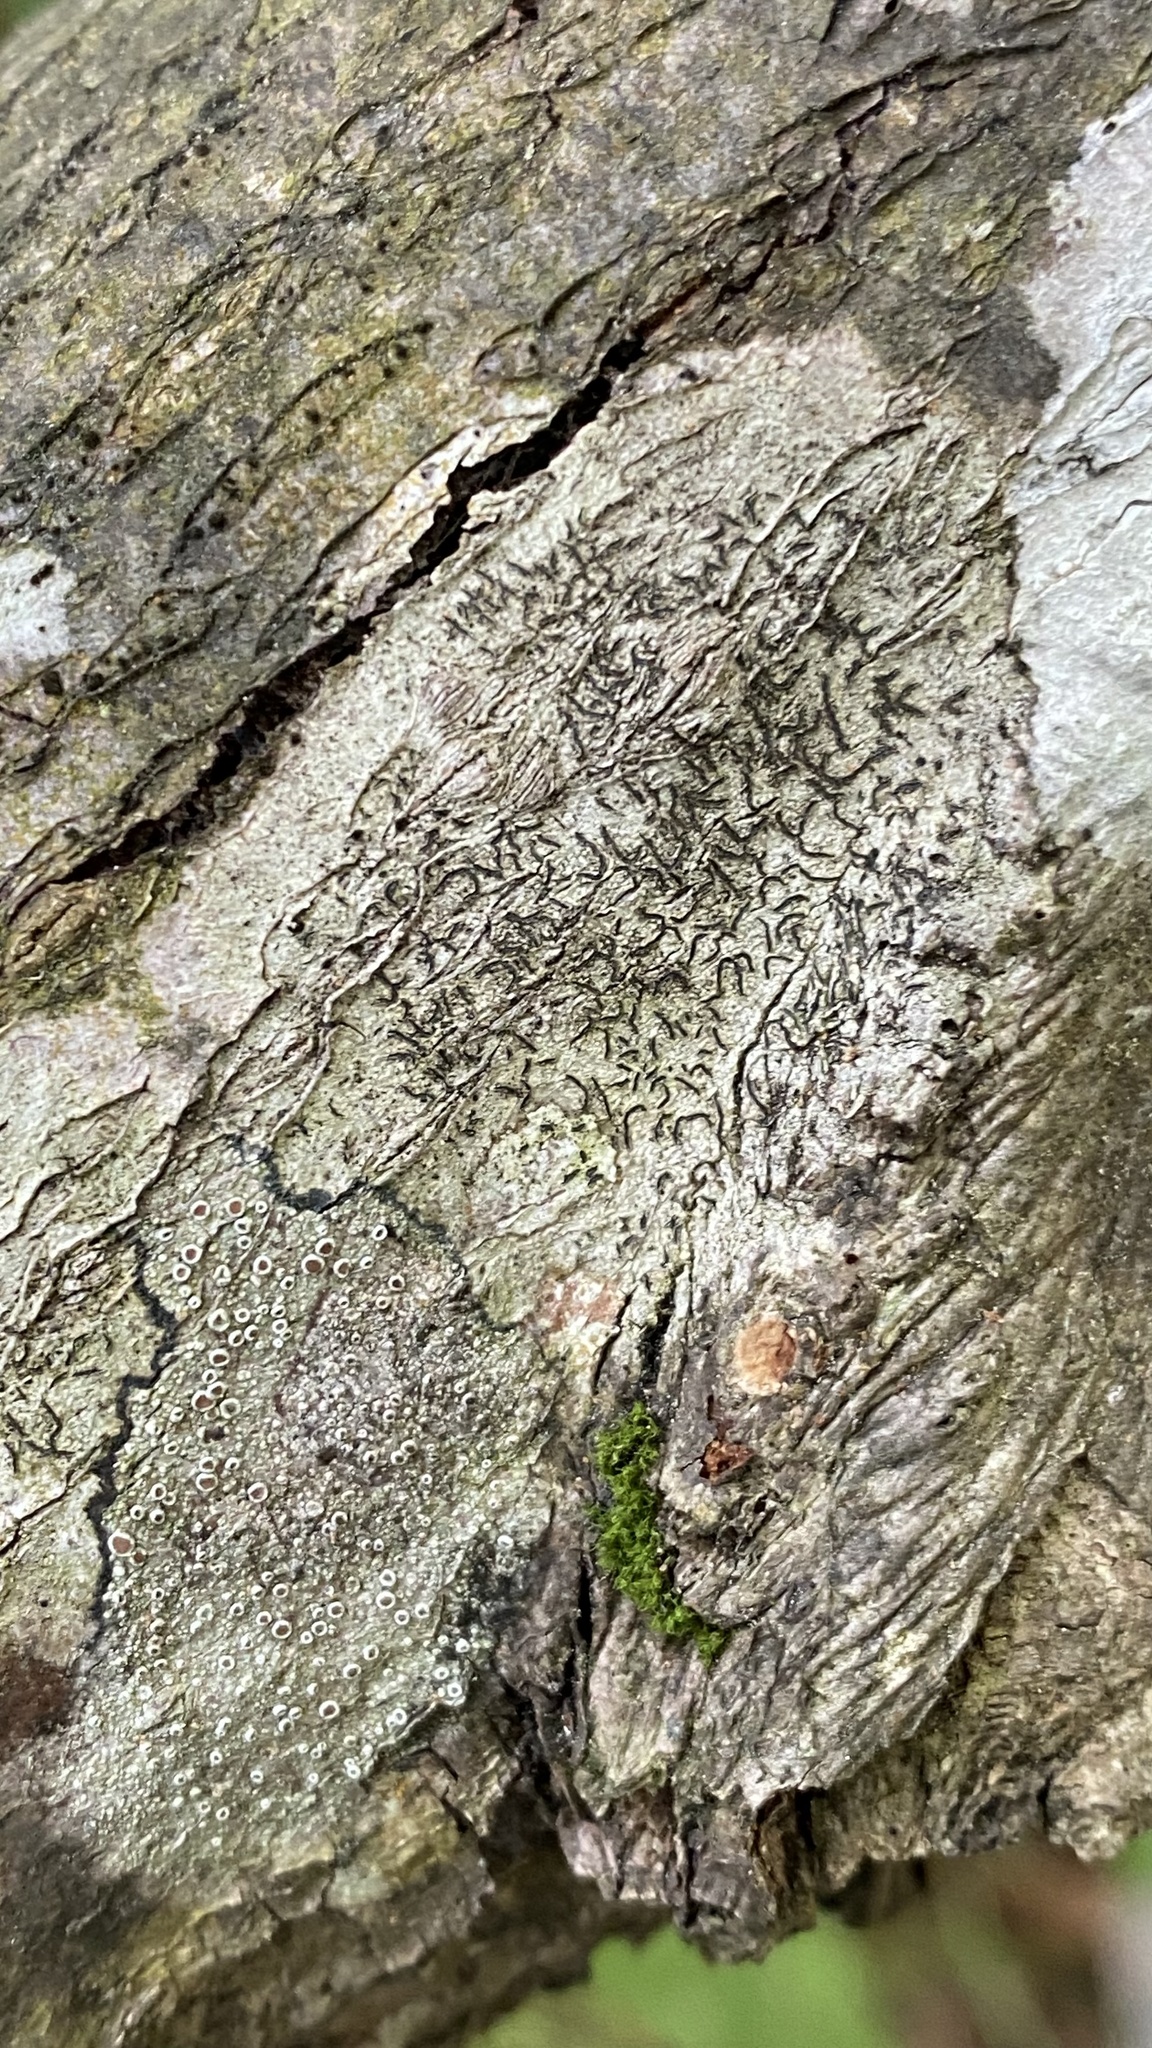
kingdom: Fungi
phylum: Ascomycota
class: Lecanoromycetes
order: Ostropales
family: Graphidaceae
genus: Graphis
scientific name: Graphis scripta
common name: Script lichen
